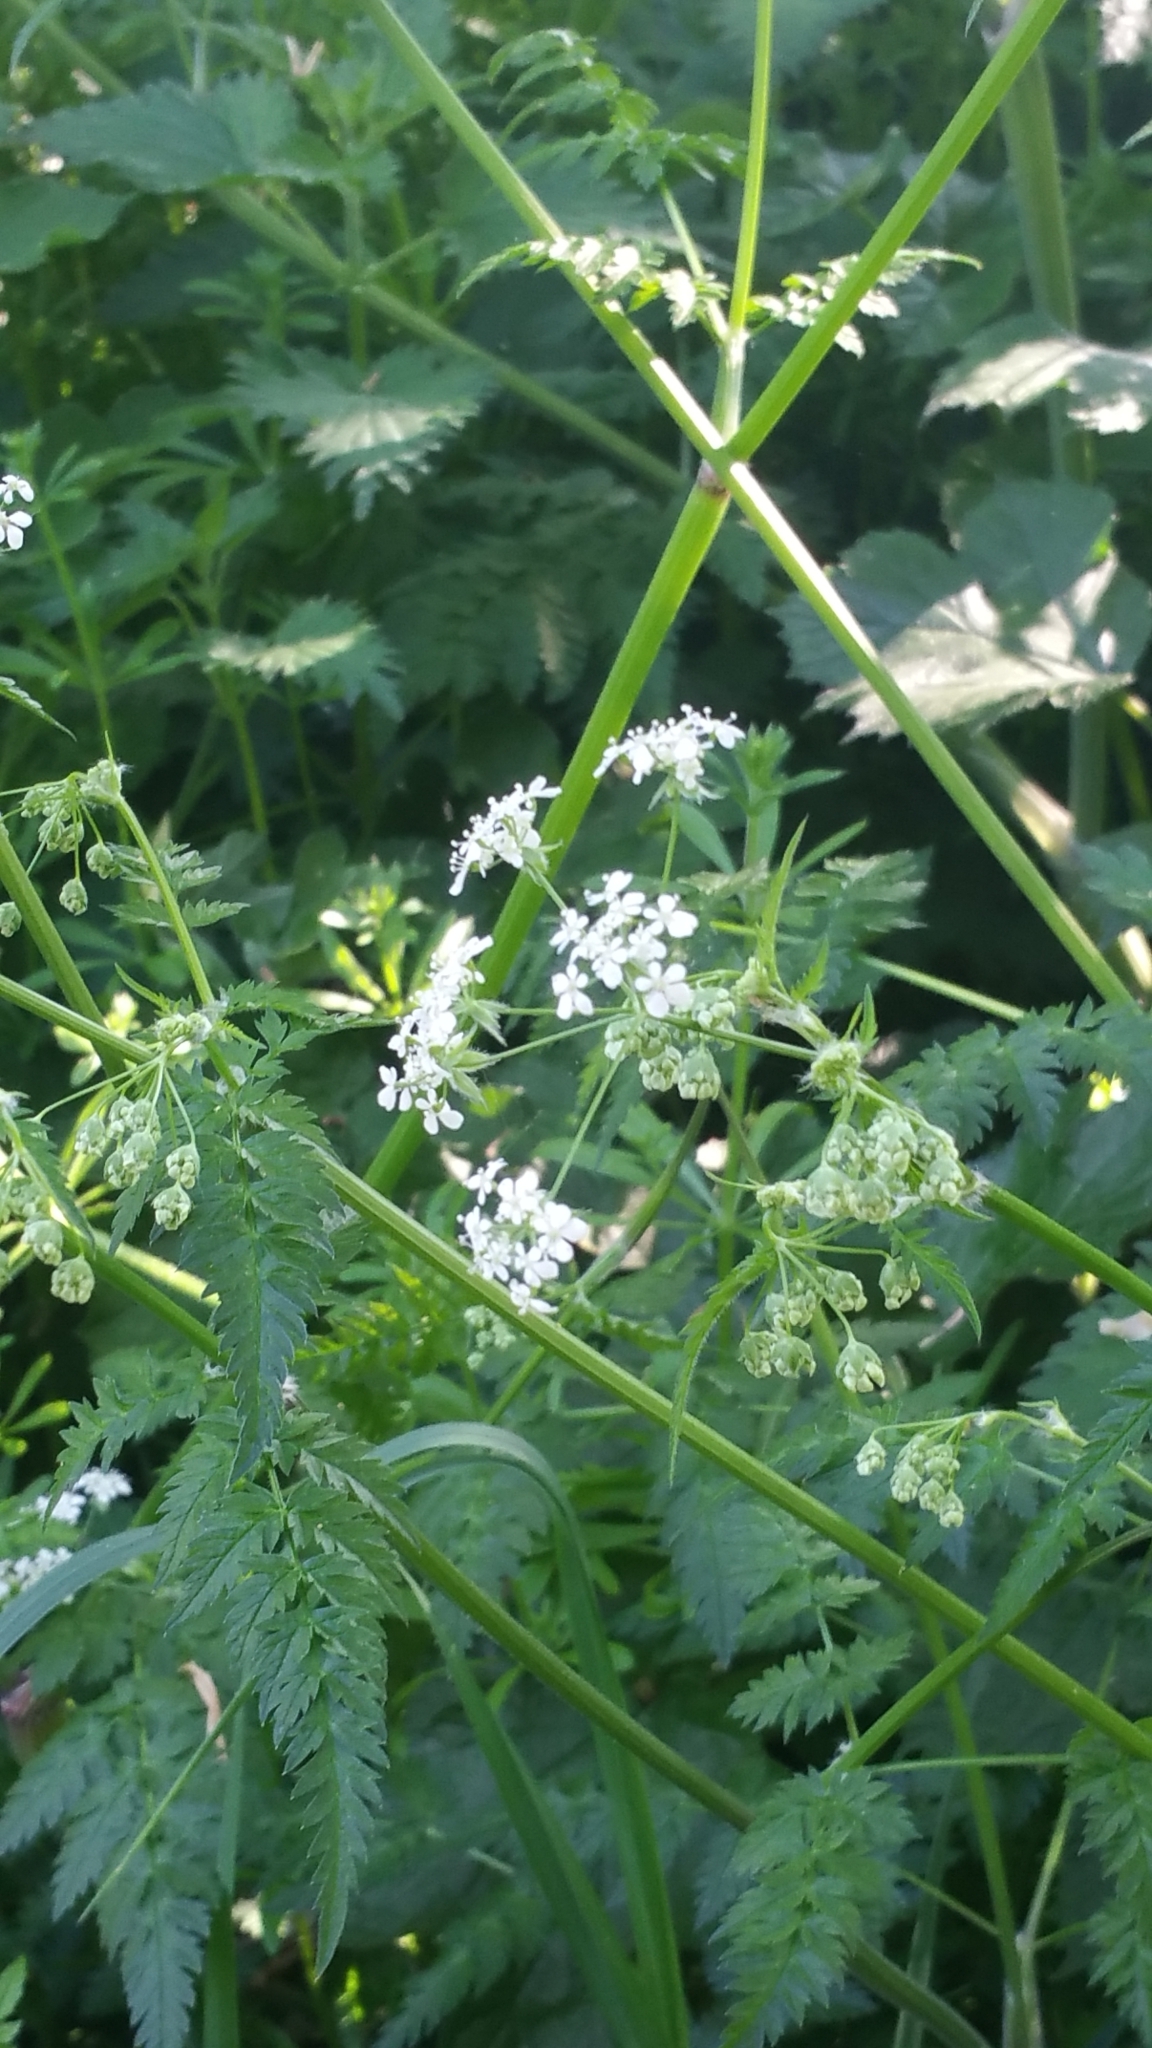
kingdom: Plantae
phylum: Tracheophyta
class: Magnoliopsida
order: Apiales
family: Apiaceae
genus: Anthriscus
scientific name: Anthriscus sylvestris
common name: Cow parsley
